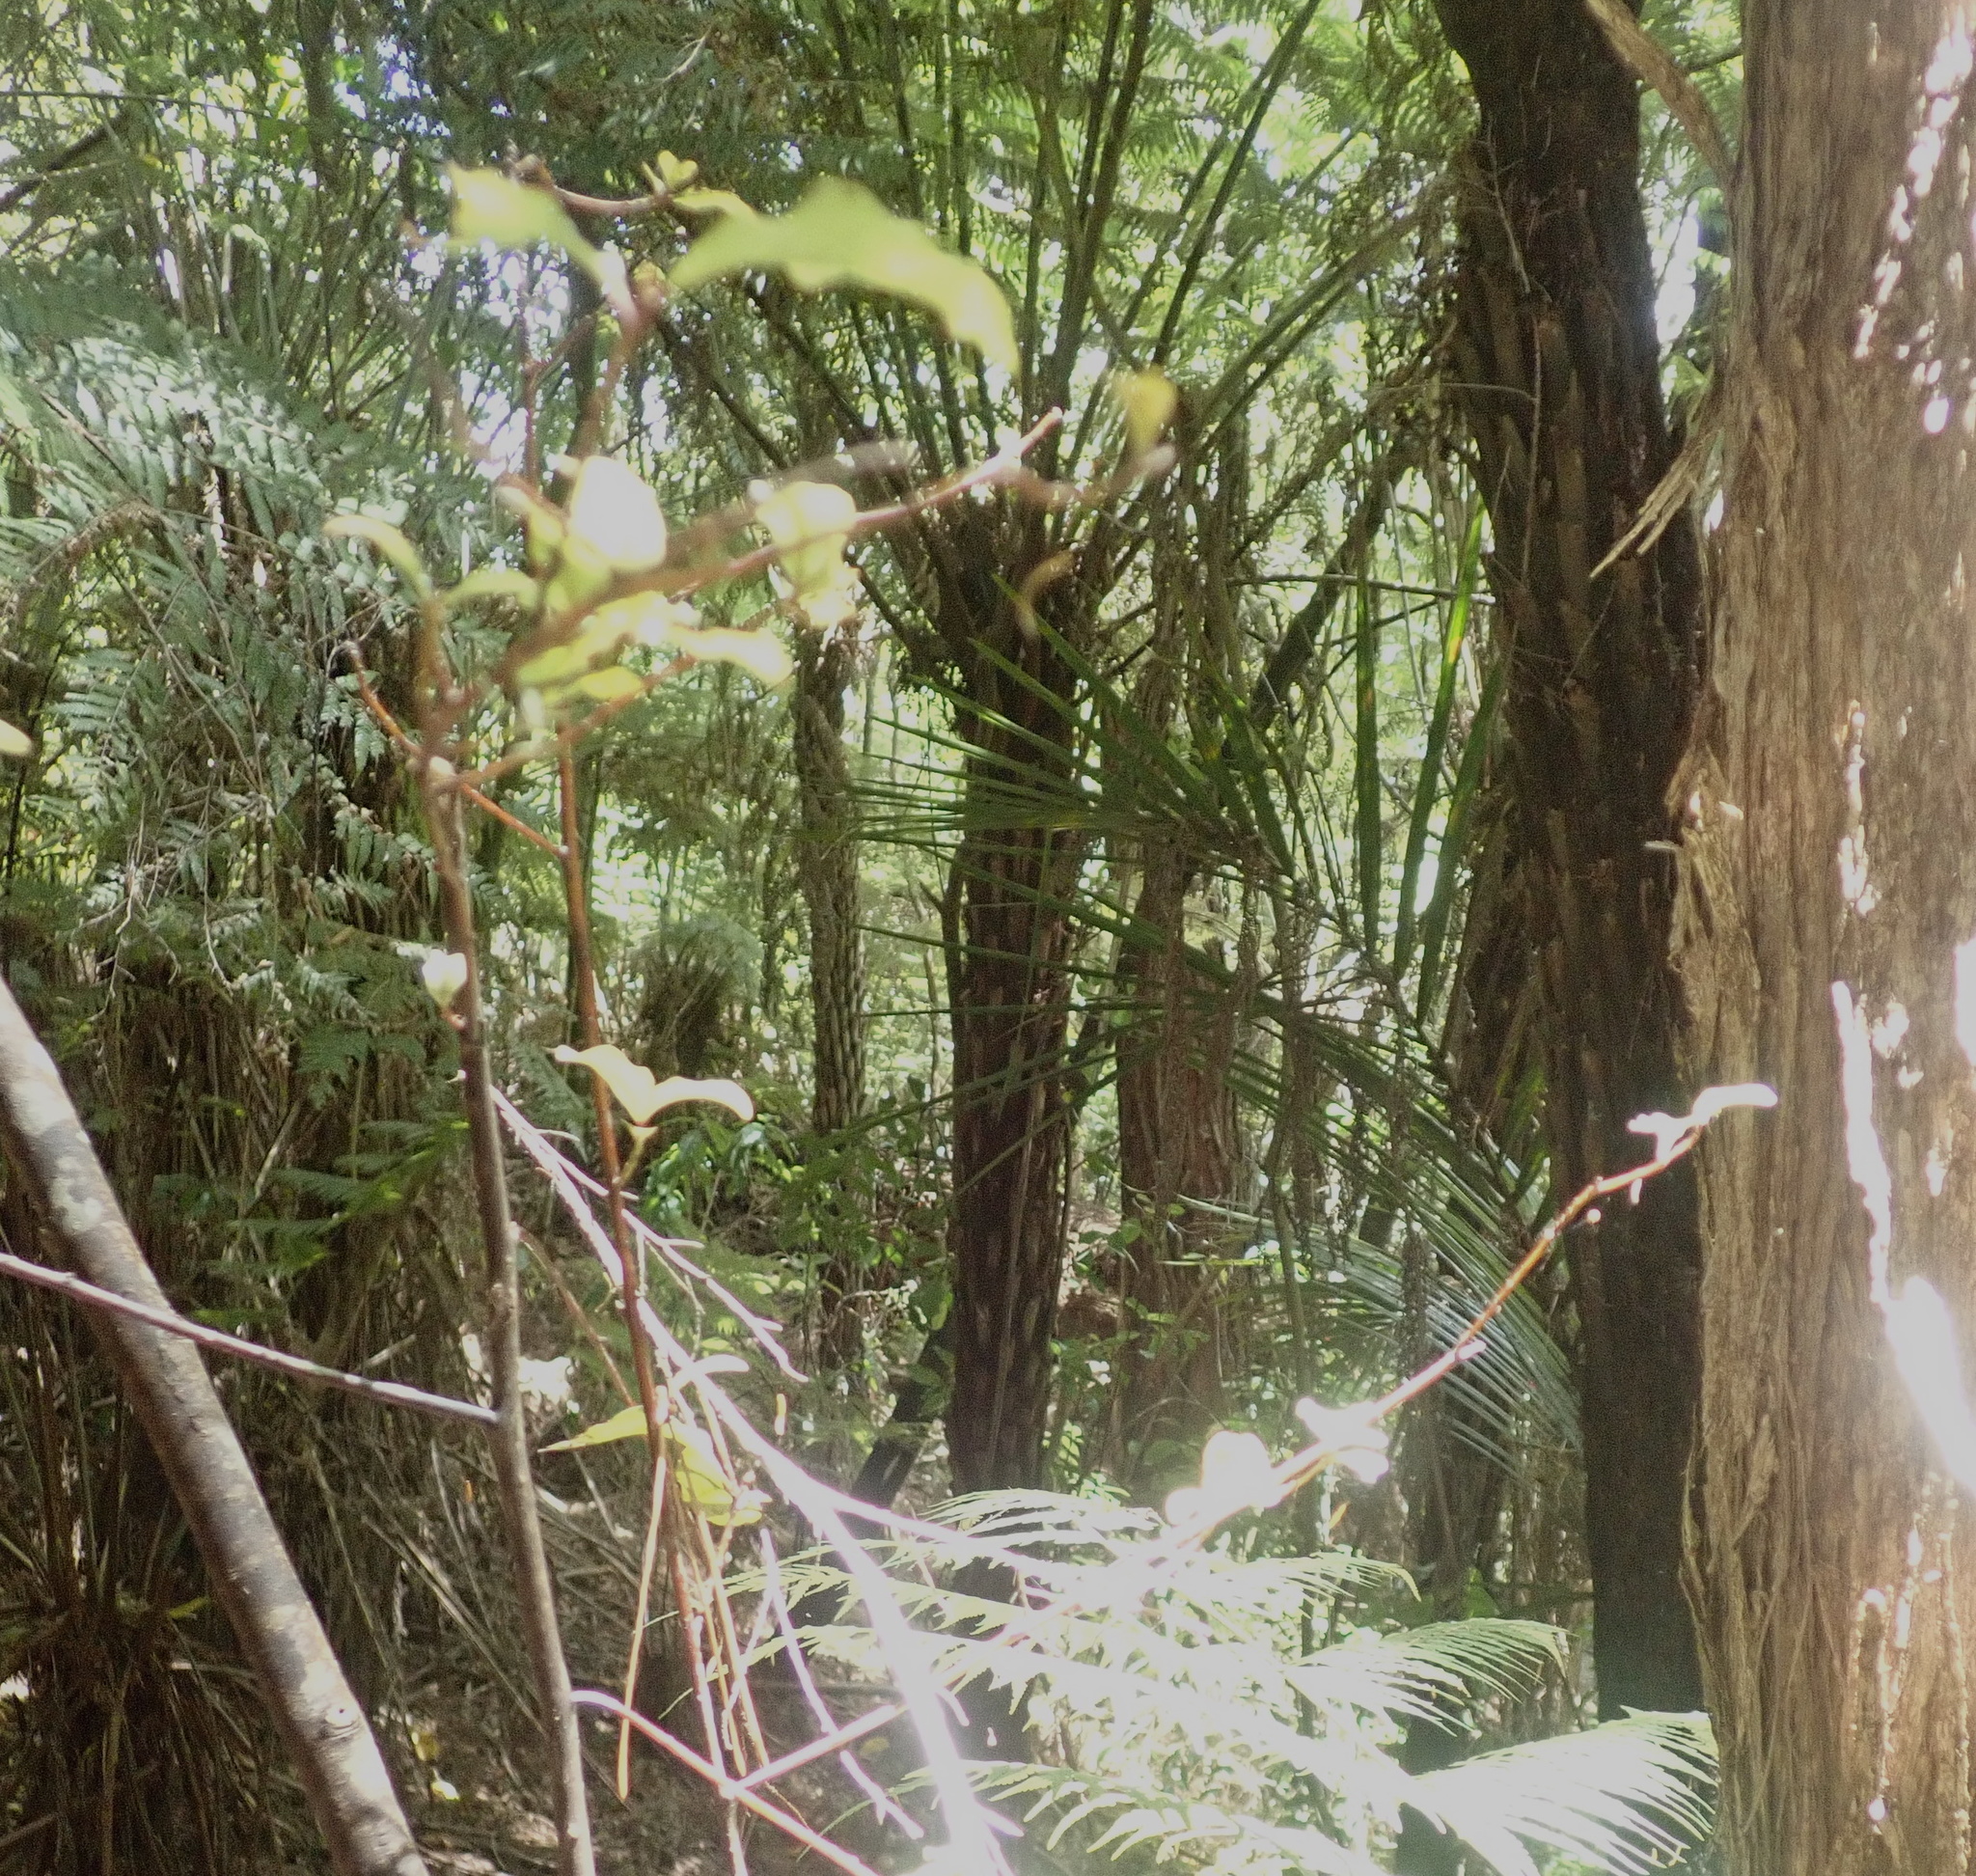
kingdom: Plantae
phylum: Tracheophyta
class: Liliopsida
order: Arecales
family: Arecaceae
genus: Rhopalostylis
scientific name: Rhopalostylis sapida
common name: Feather-duster palm
